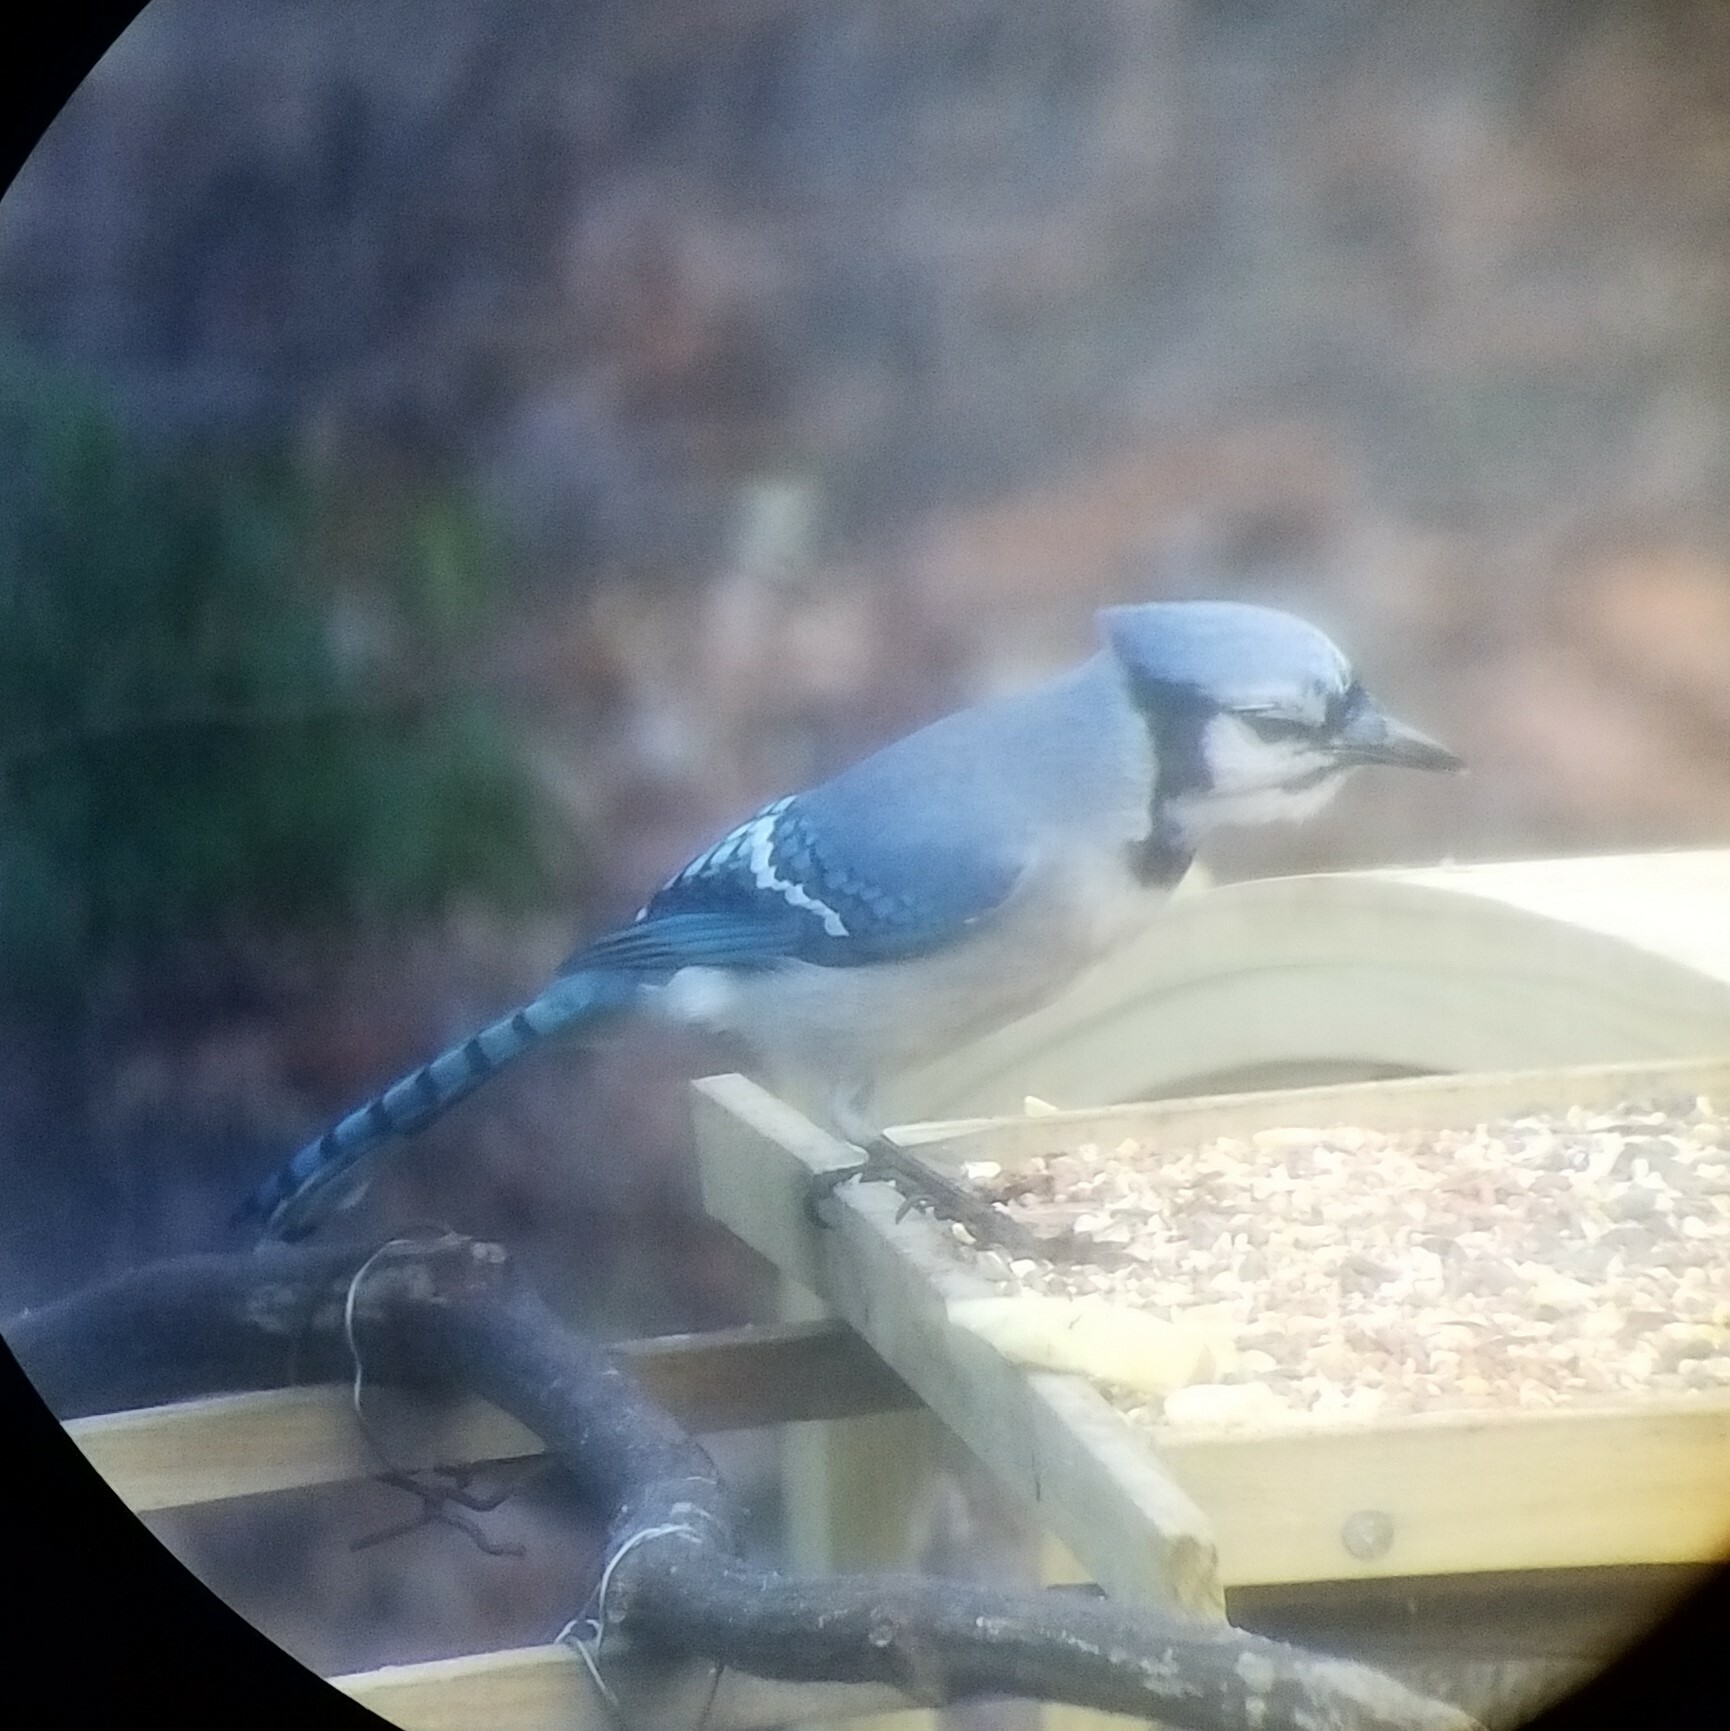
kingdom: Animalia
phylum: Chordata
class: Aves
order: Passeriformes
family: Corvidae
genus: Cyanocitta
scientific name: Cyanocitta cristata
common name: Blue jay
